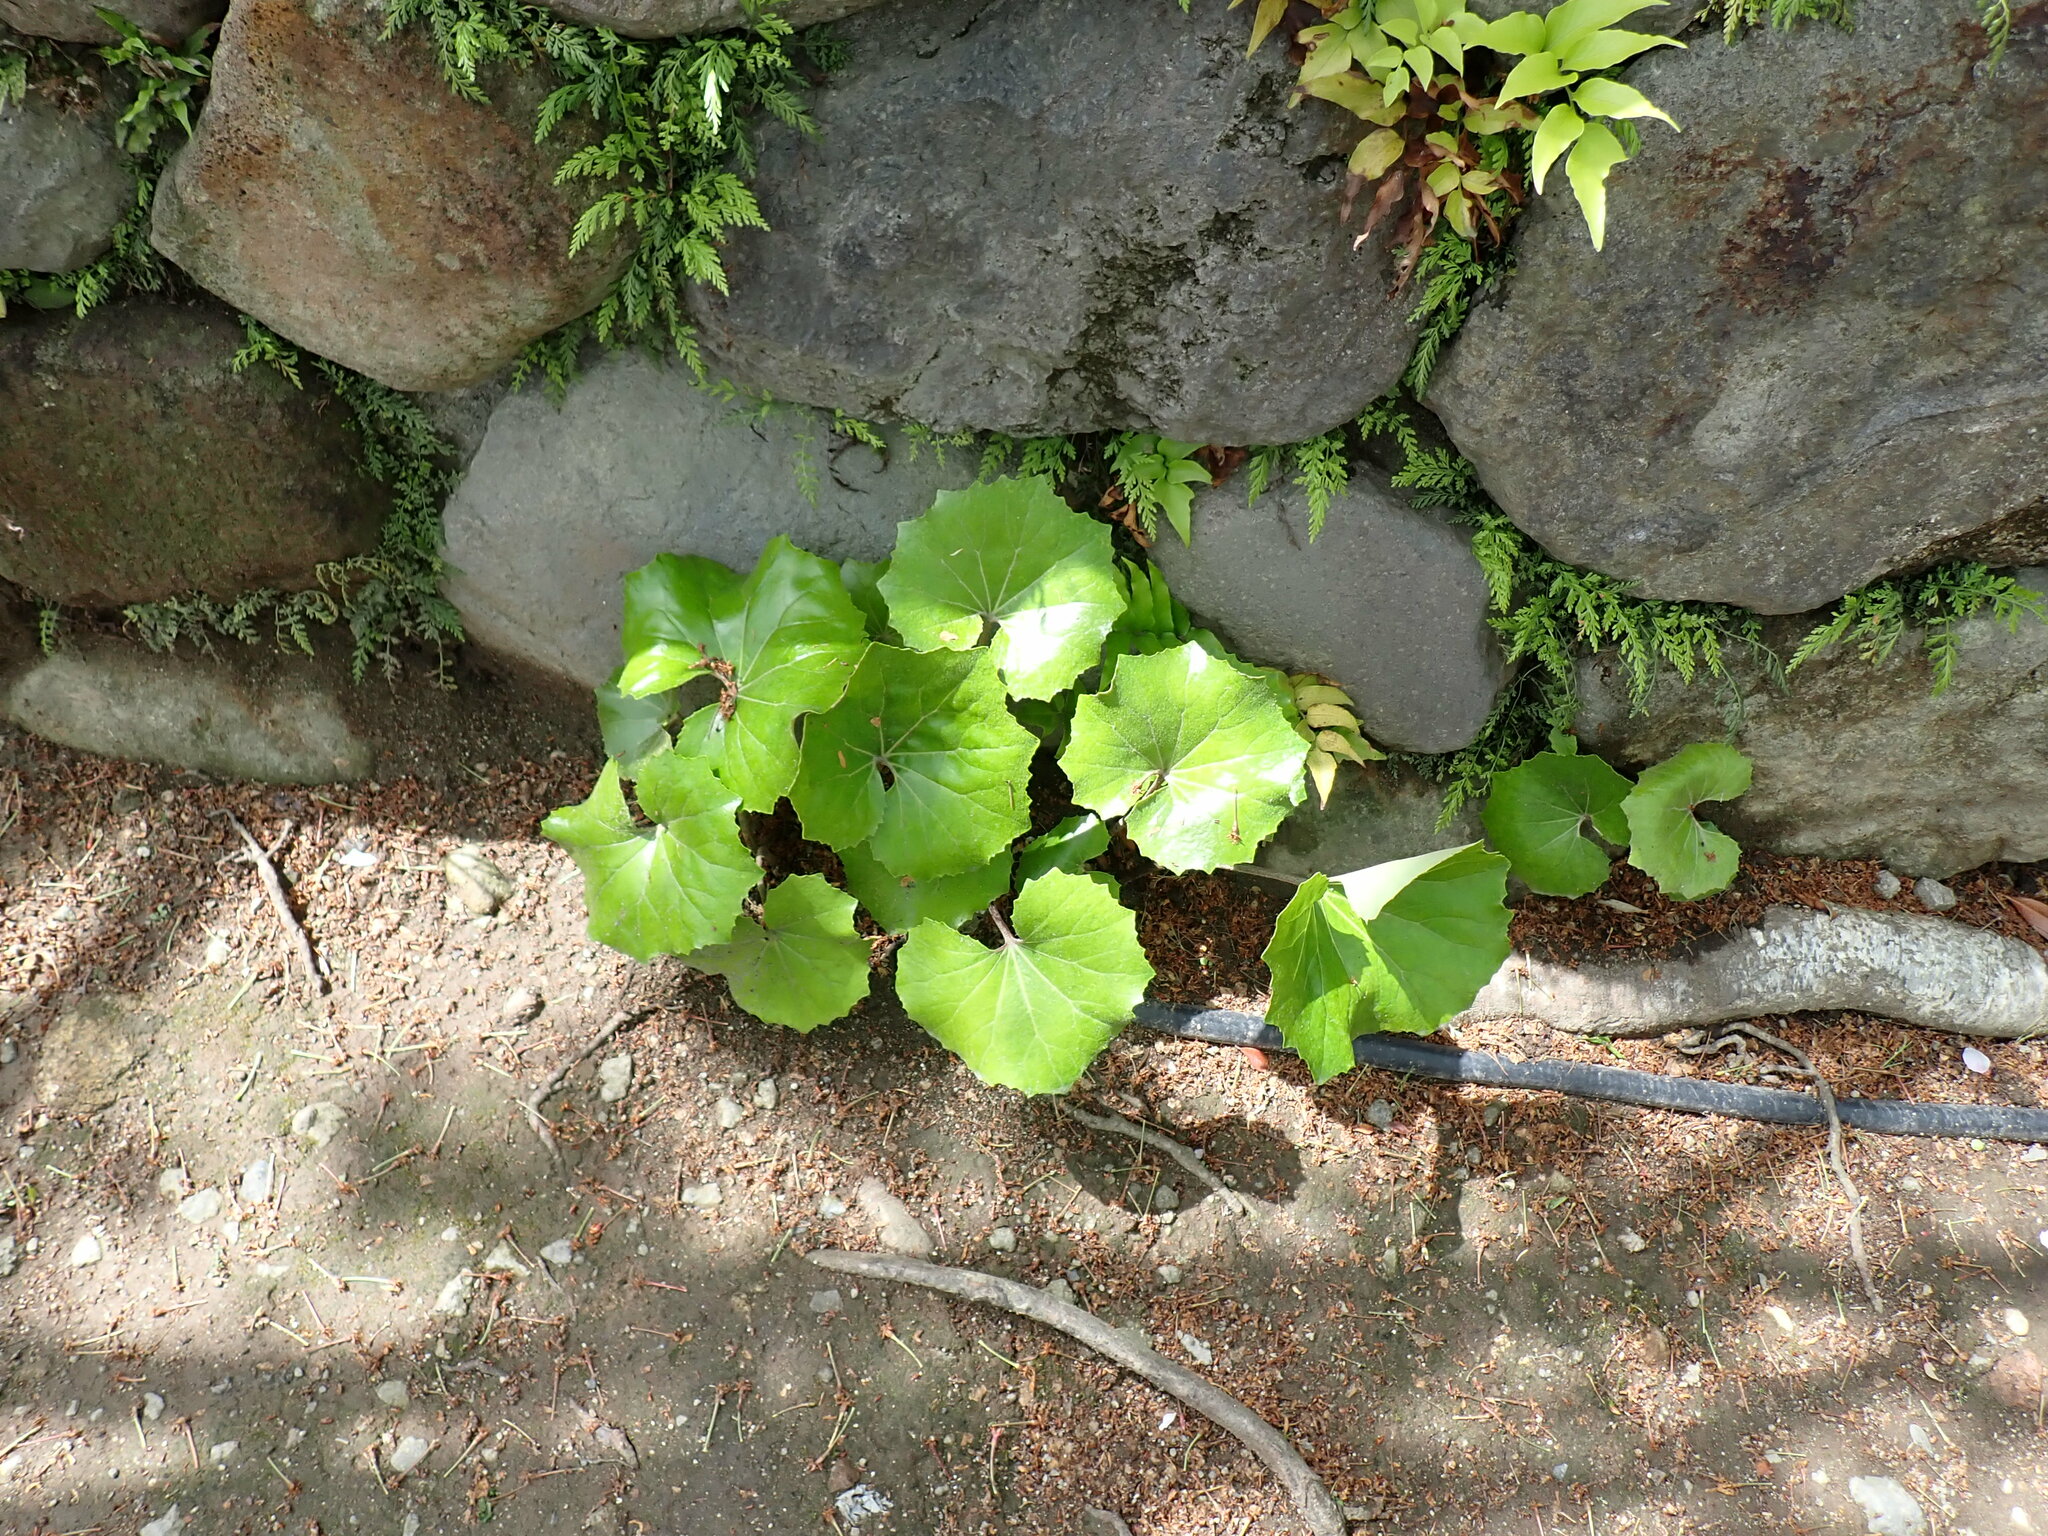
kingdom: Plantae
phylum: Tracheophyta
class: Magnoliopsida
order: Asterales
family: Asteraceae
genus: Farfugium
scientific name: Farfugium japonicum
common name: Leopardplant
